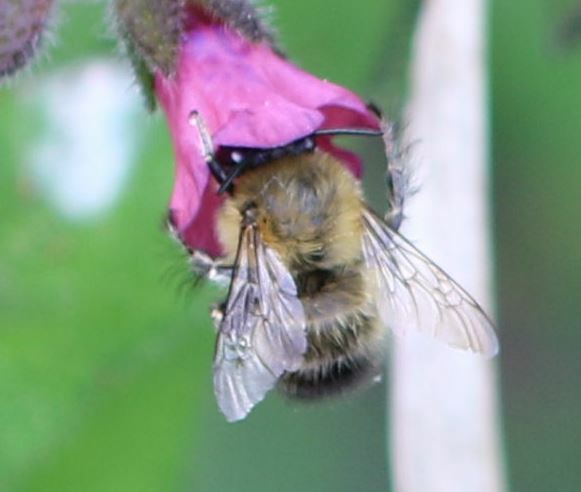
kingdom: Animalia
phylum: Arthropoda
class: Insecta
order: Hymenoptera
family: Apidae
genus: Anthophora
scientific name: Anthophora plumipes
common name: Hairy-footed flower bee
